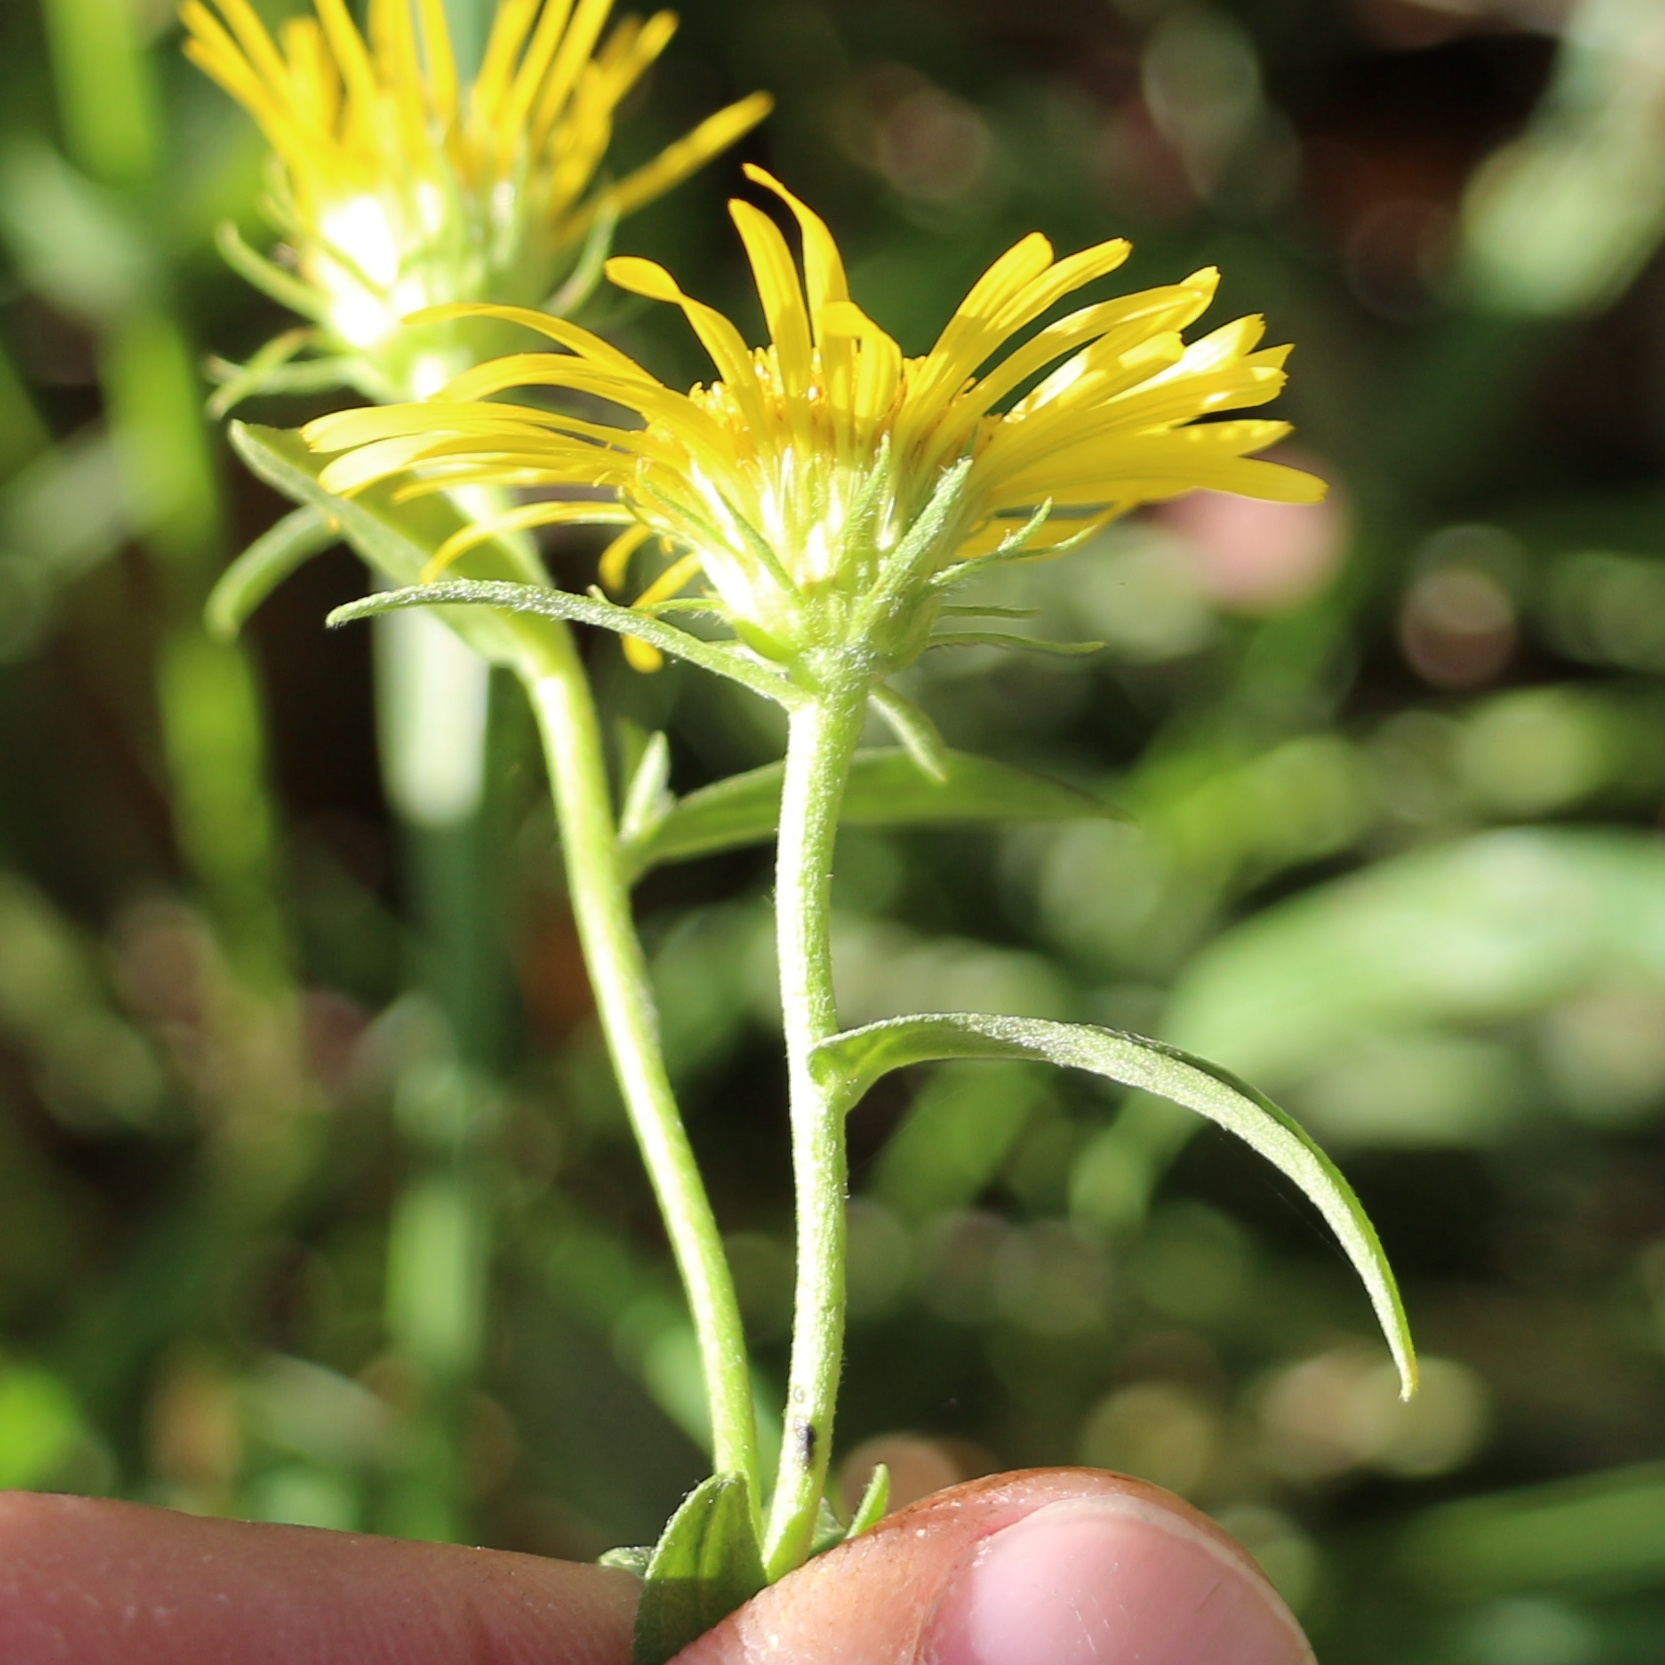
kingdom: Plantae
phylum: Tracheophyta
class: Magnoliopsida
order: Asterales
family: Asteraceae
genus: Pentanema
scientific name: Pentanema britannicum
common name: British elecampane
